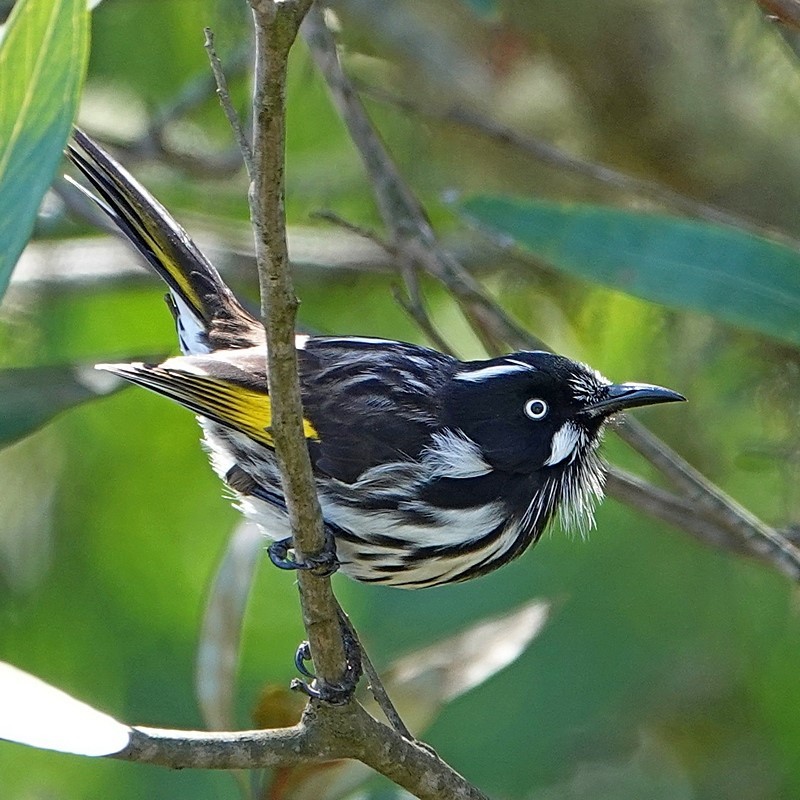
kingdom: Animalia
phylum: Chordata
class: Aves
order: Passeriformes
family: Meliphagidae
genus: Phylidonyris
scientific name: Phylidonyris novaehollandiae
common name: New holland honeyeater
